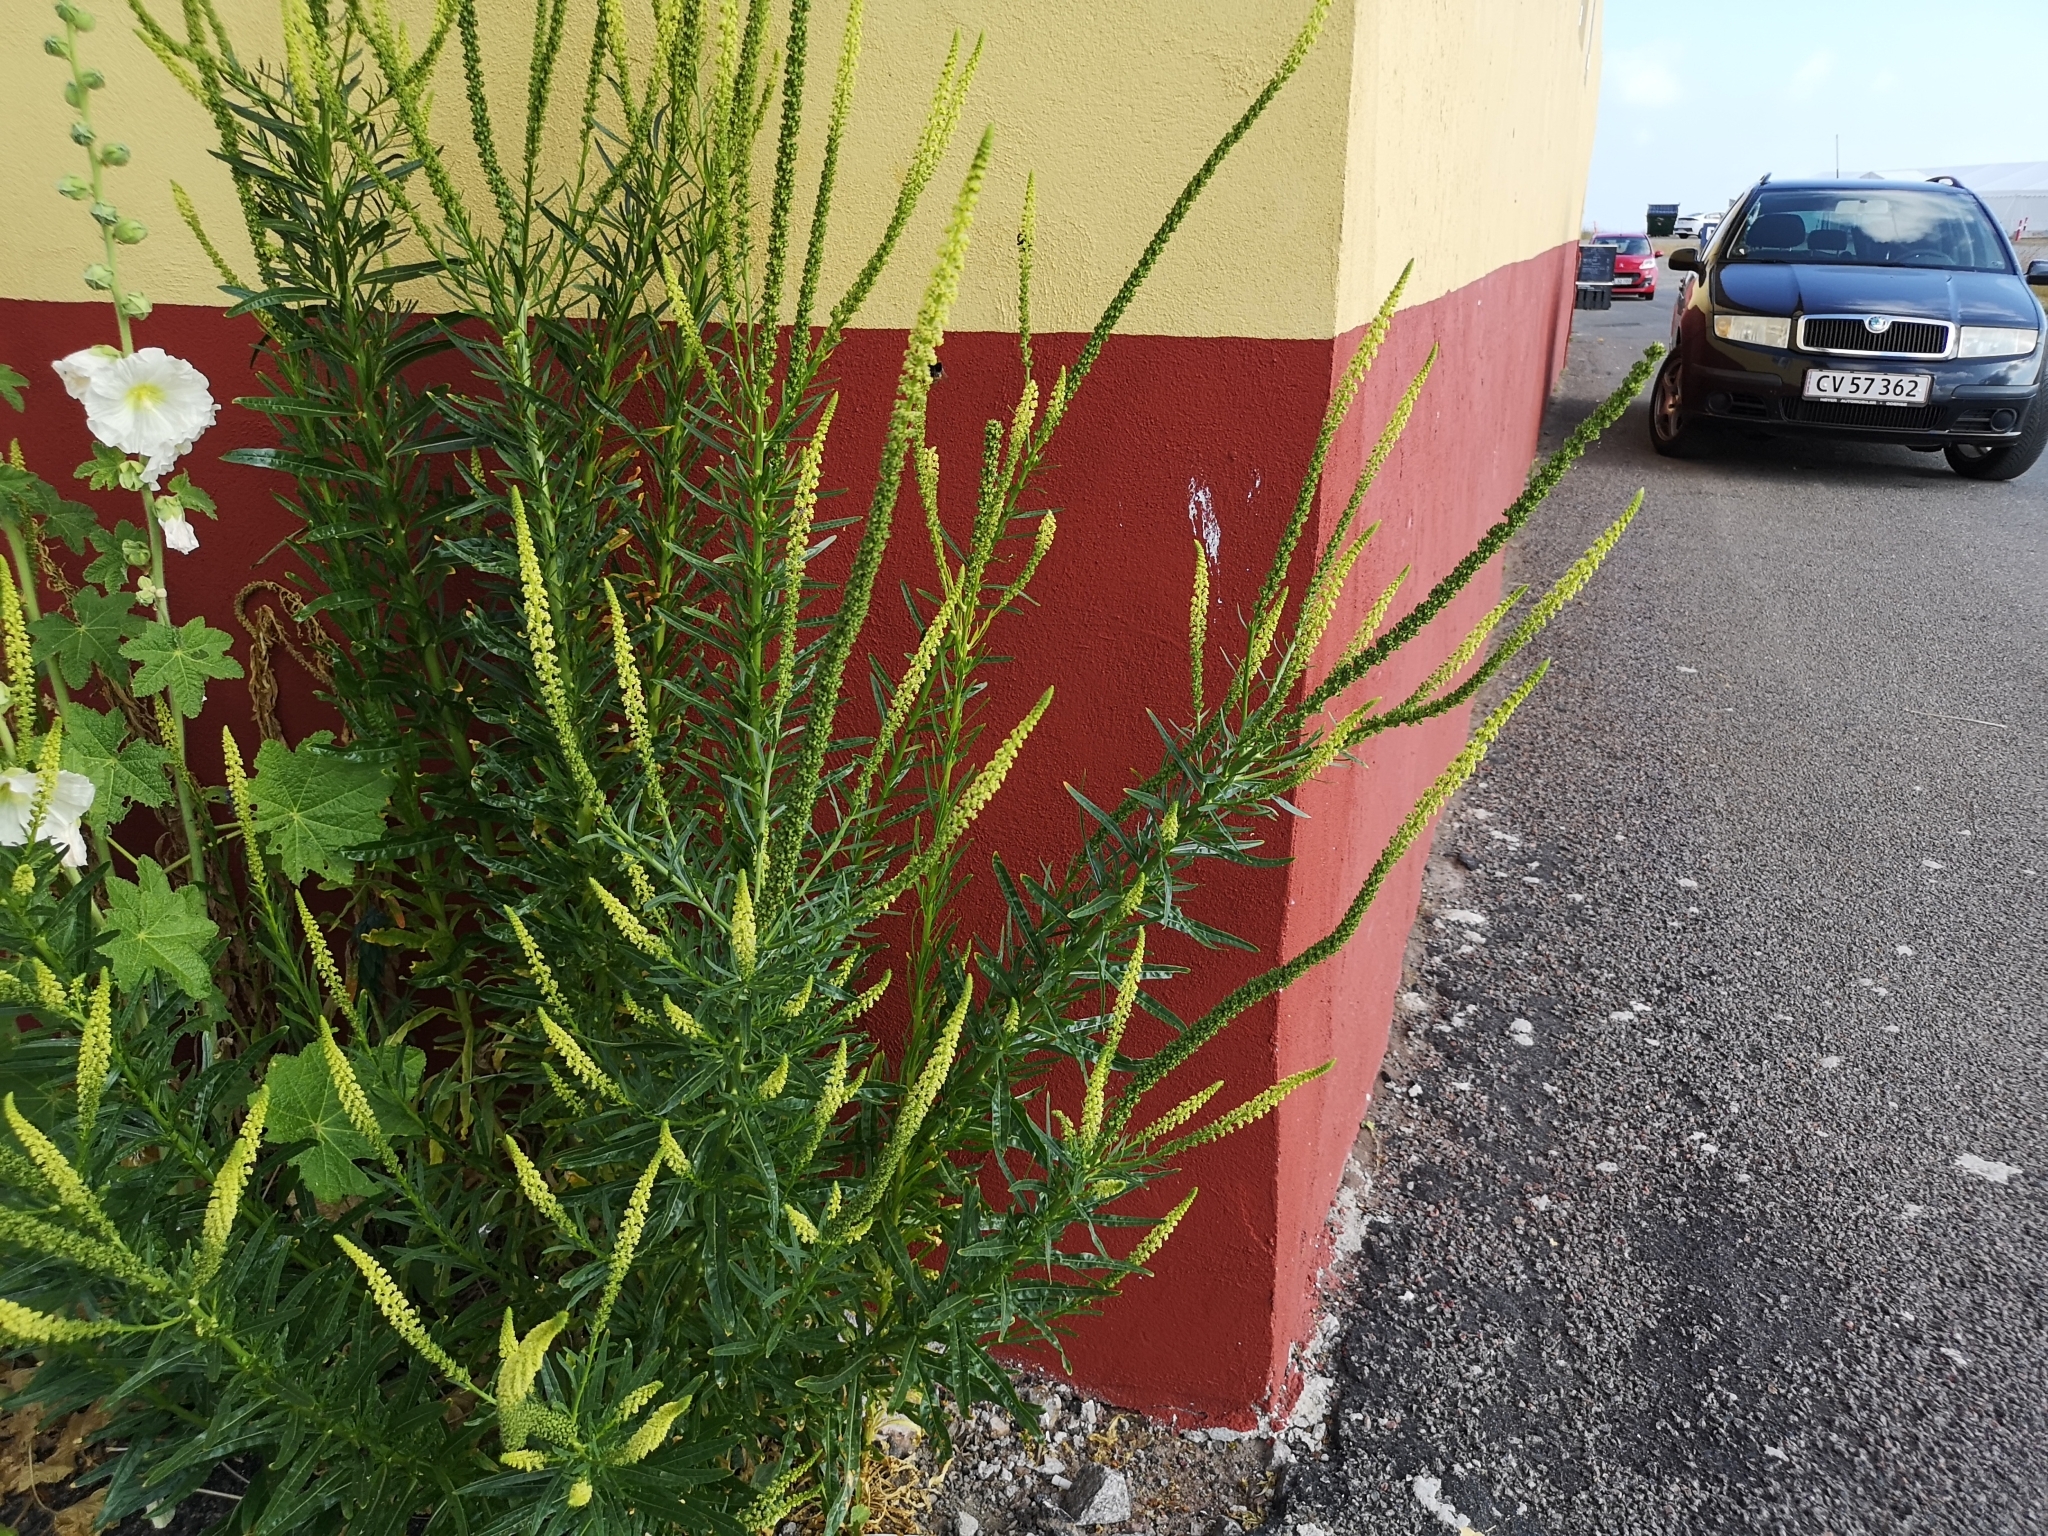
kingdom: Plantae
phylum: Tracheophyta
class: Magnoliopsida
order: Brassicales
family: Resedaceae
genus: Reseda
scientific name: Reseda luteola
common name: Weld
